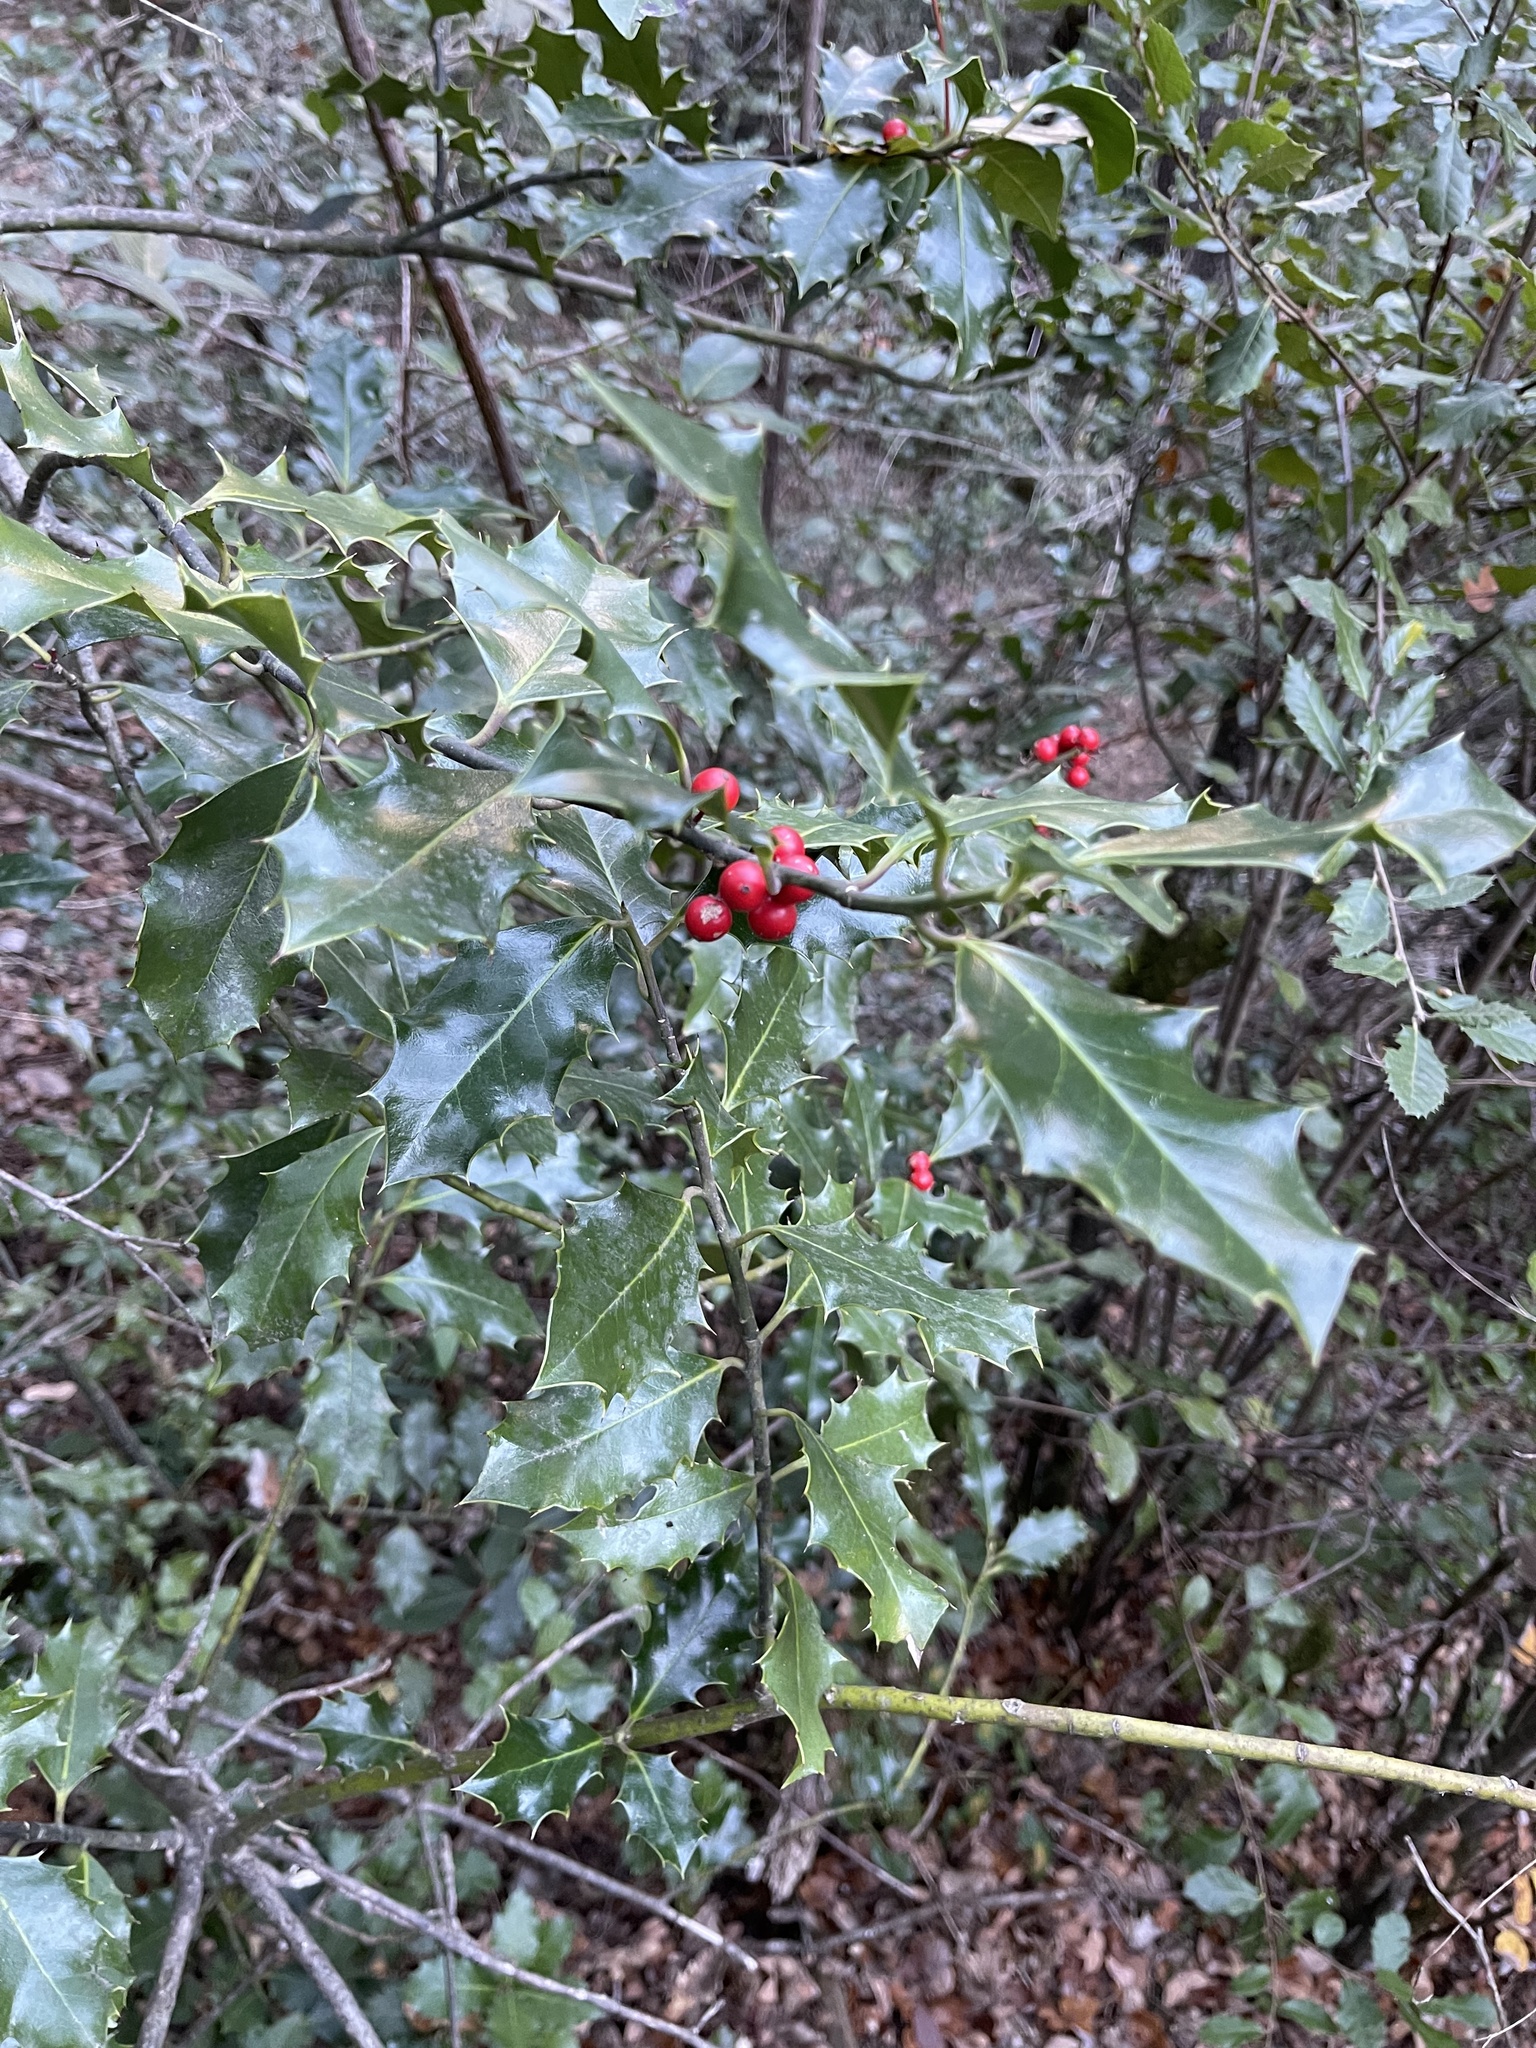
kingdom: Plantae
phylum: Tracheophyta
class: Magnoliopsida
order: Aquifoliales
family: Aquifoliaceae
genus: Ilex
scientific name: Ilex aquifolium
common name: English holly
